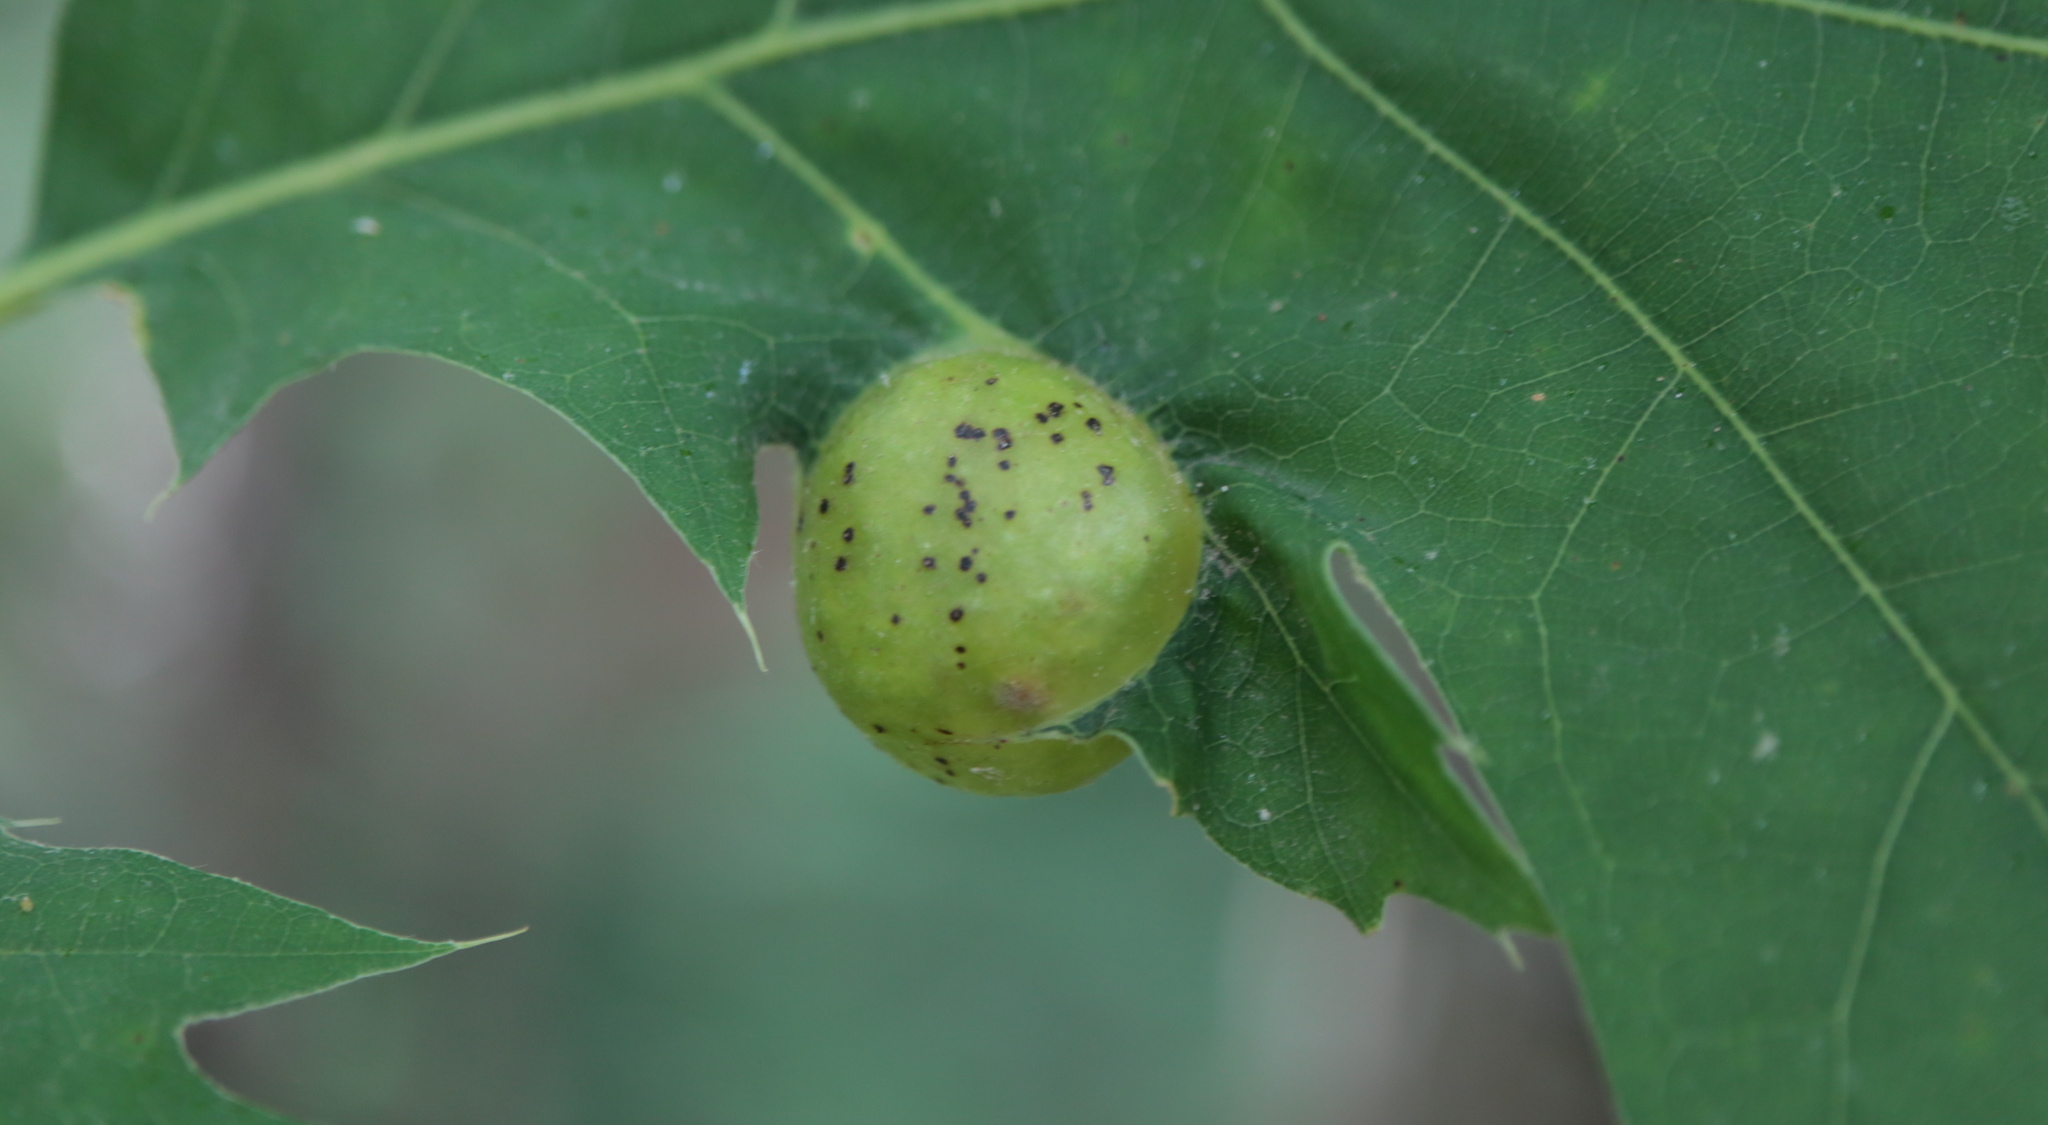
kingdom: Animalia
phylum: Arthropoda
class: Insecta
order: Hymenoptera
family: Cynipidae
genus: Amphibolips
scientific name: Amphibolips
